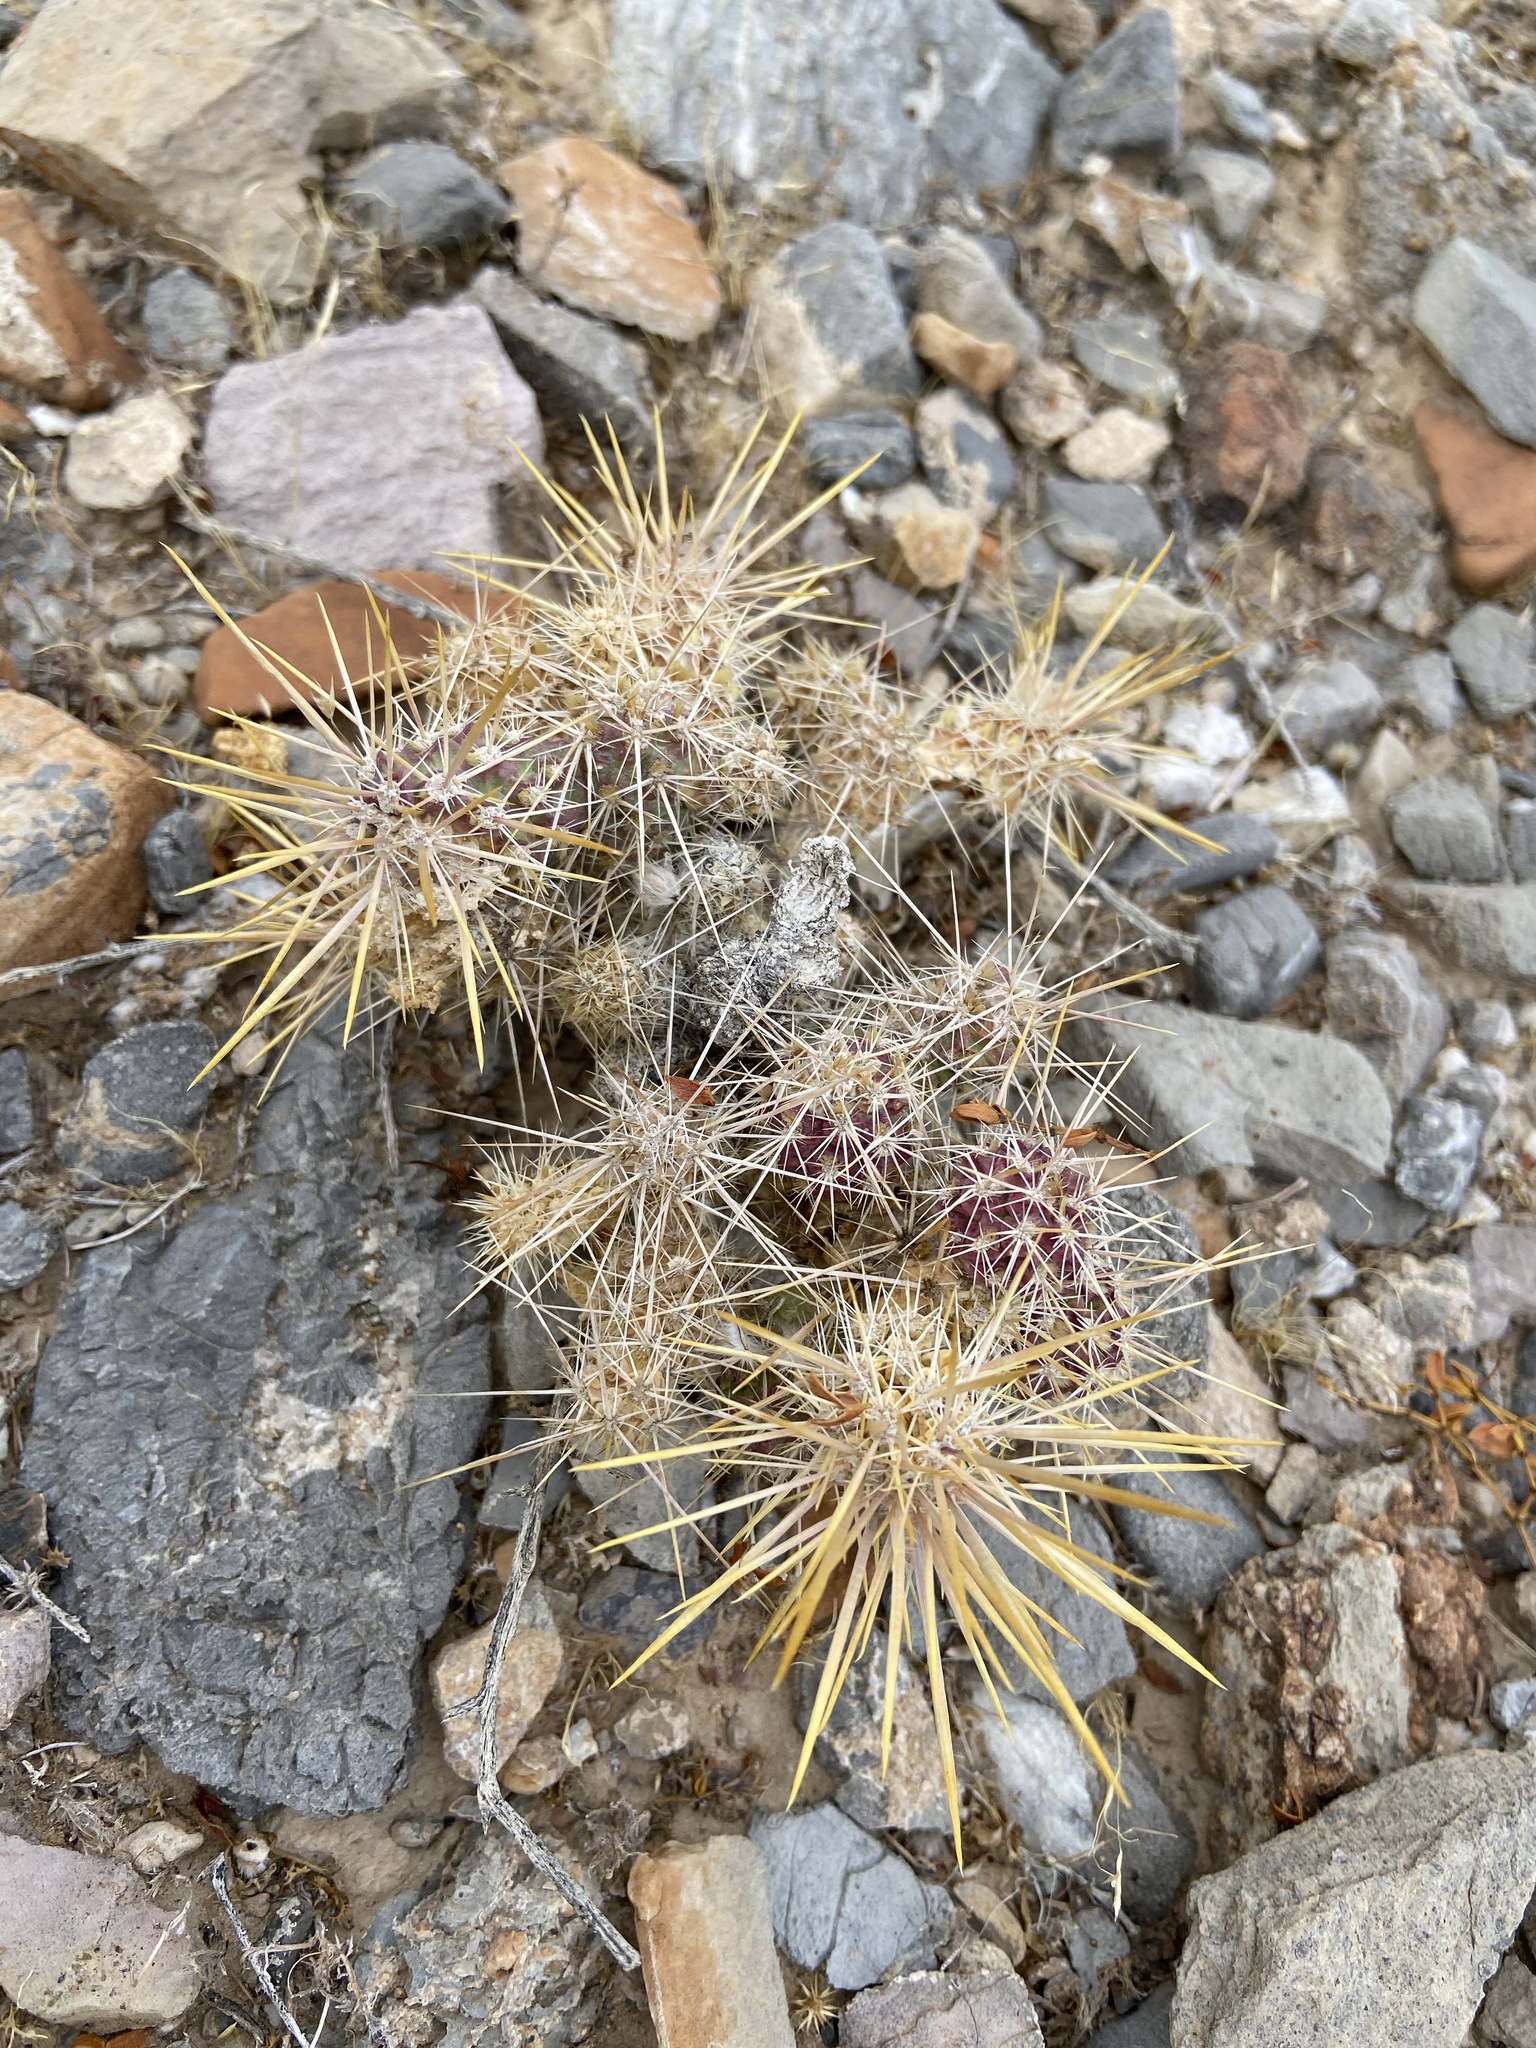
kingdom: Plantae
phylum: Tracheophyta
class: Magnoliopsida
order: Caryophyllales
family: Cactaceae
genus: Cylindropuntia
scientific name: Cylindropuntia echinocarpa
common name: Ground cholla
